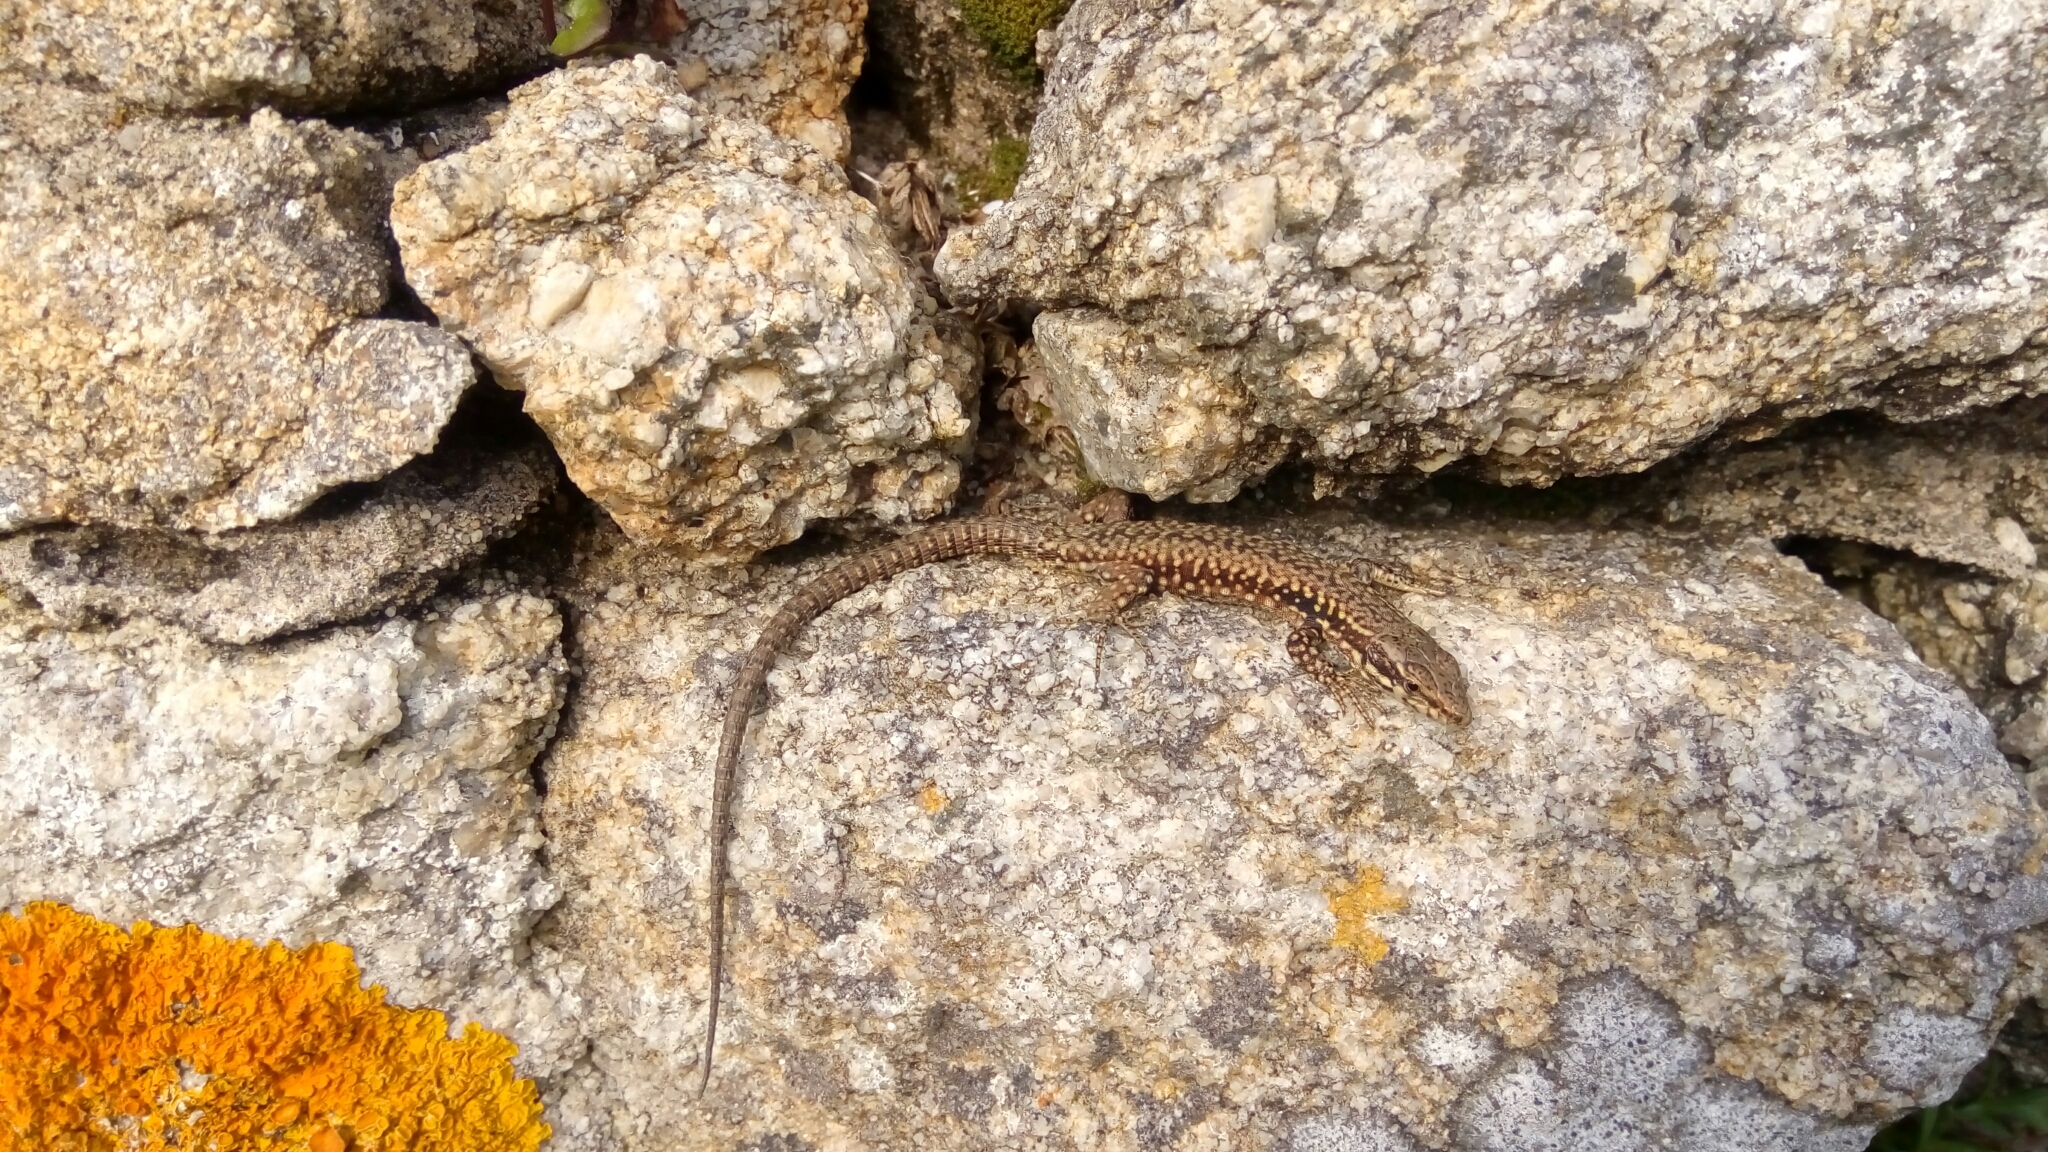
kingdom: Animalia
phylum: Chordata
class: Squamata
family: Lacertidae
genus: Podarcis
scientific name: Podarcis muralis
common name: Common wall lizard
